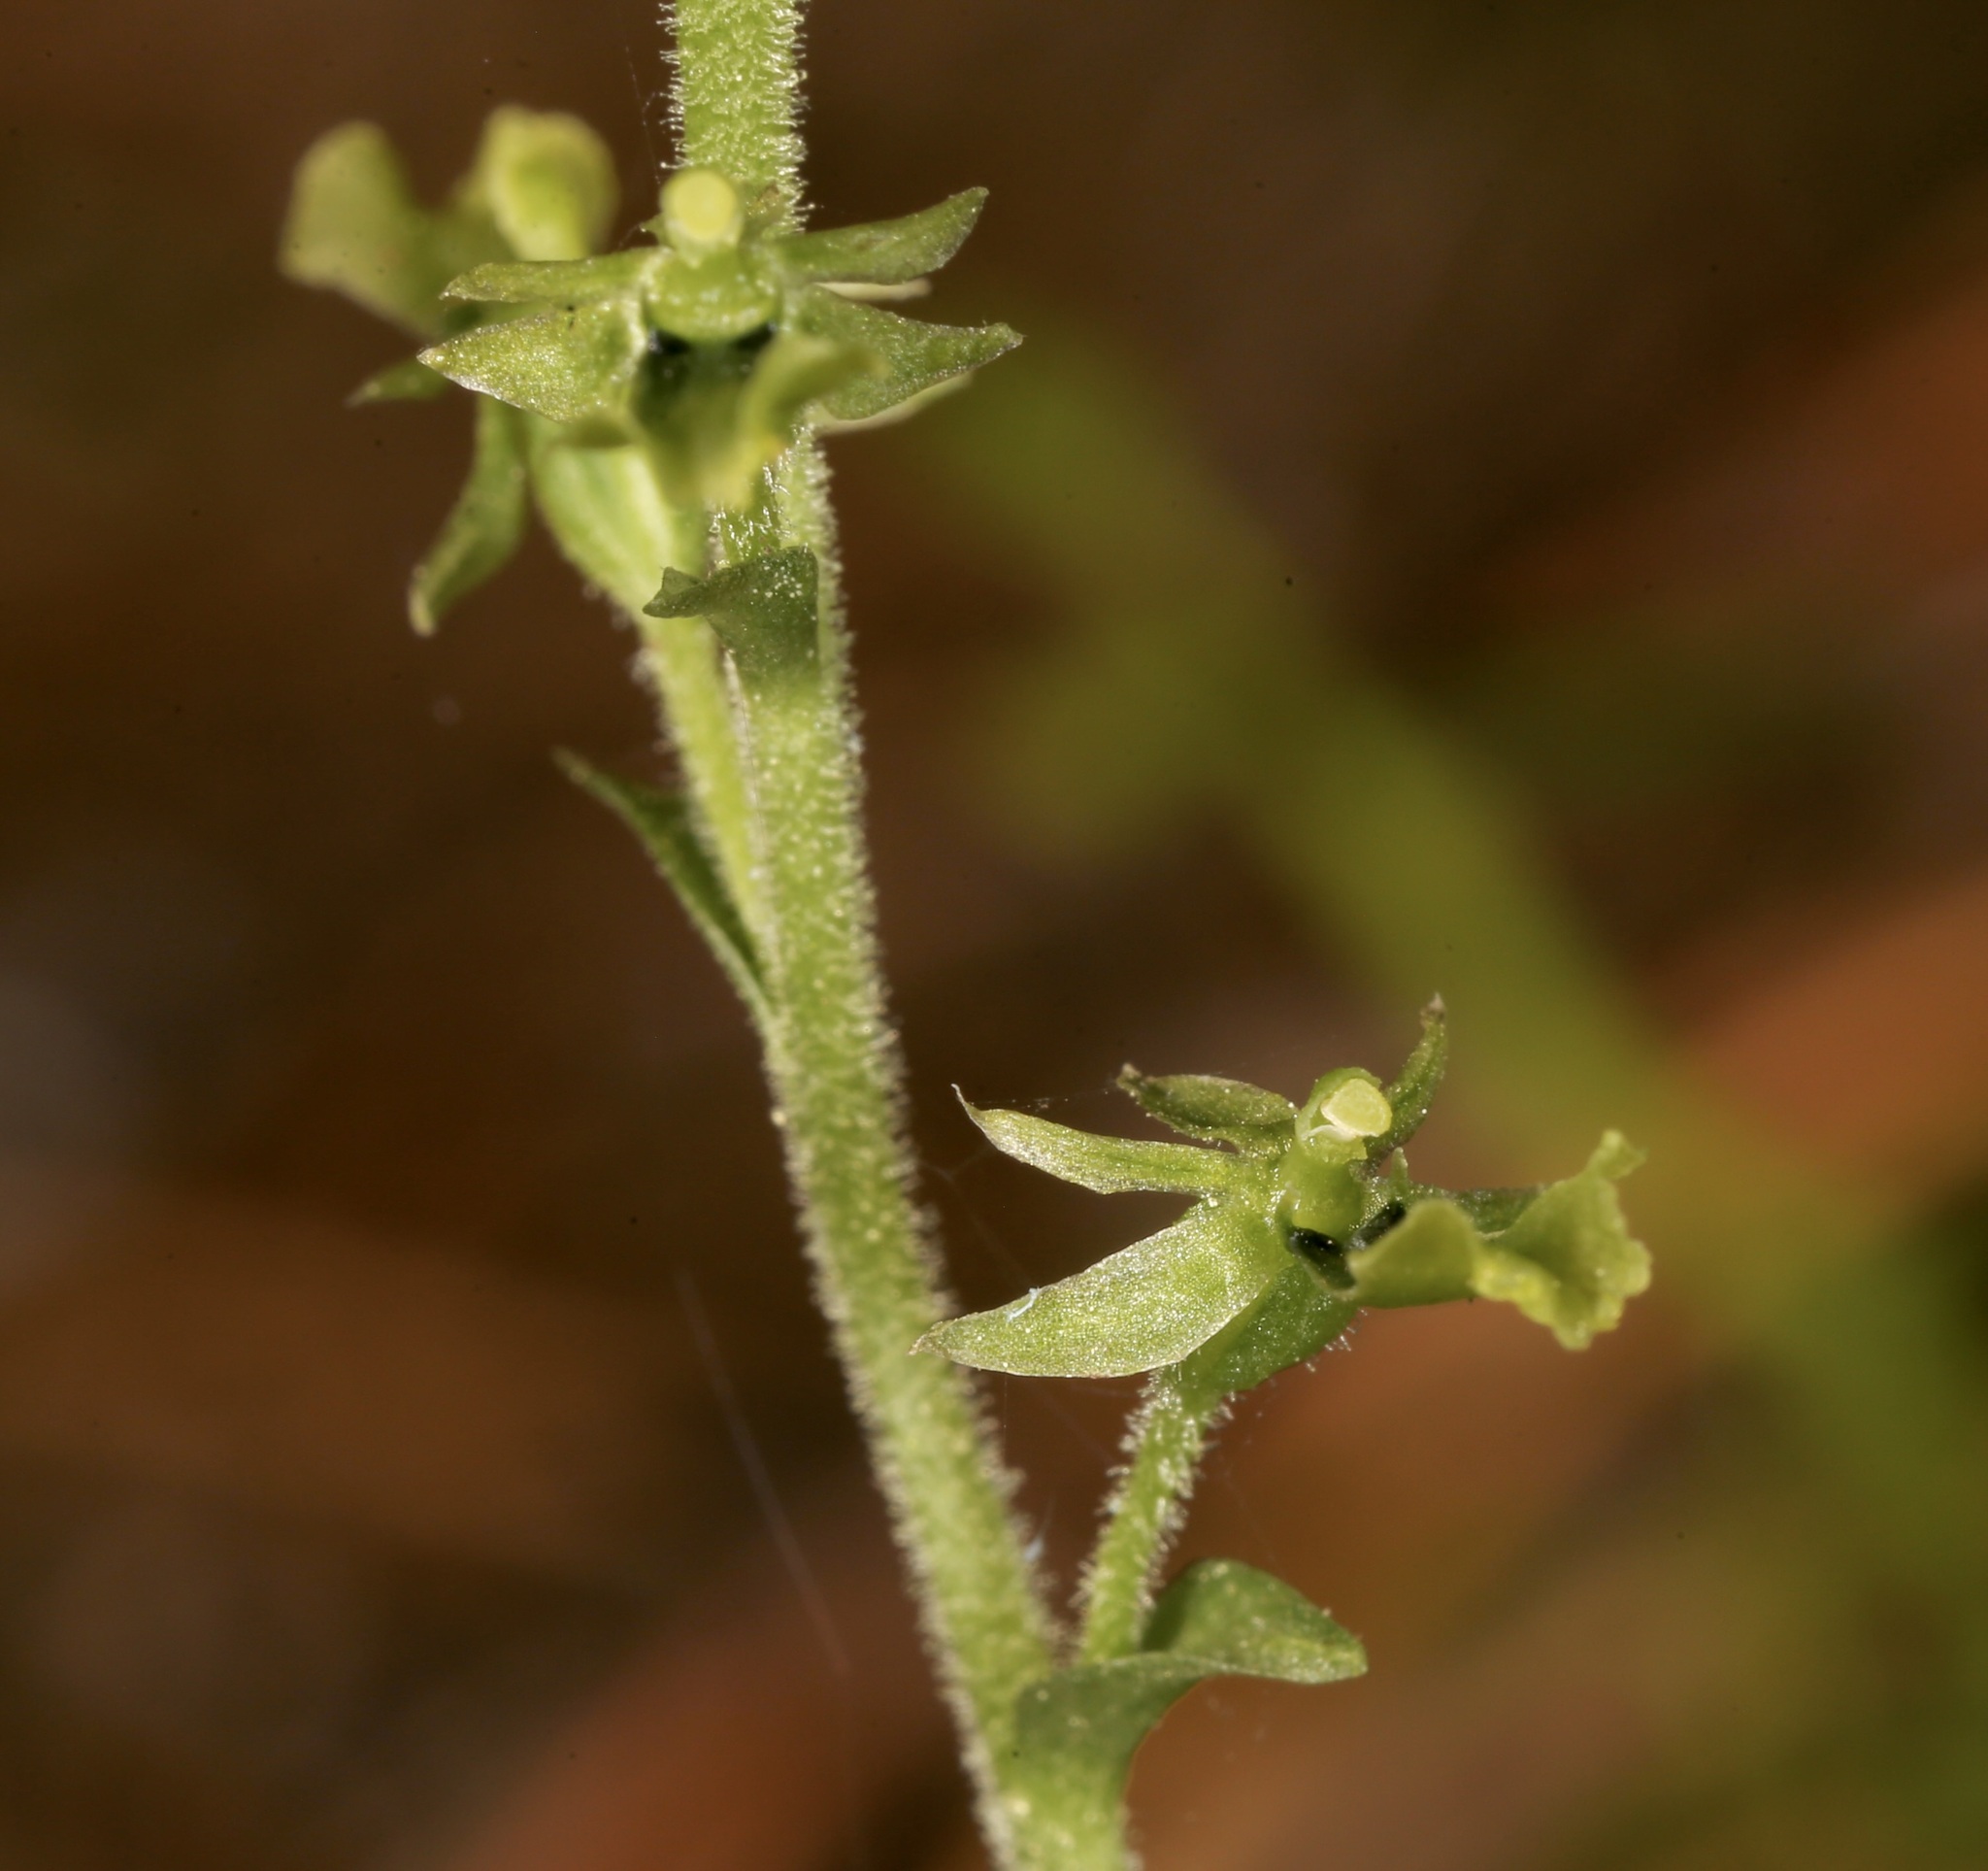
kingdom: Plantae
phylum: Tracheophyta
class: Liliopsida
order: Asparagales
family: Orchidaceae
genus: Neottia
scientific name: Neottia banksiana
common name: Northwestern twayblade
